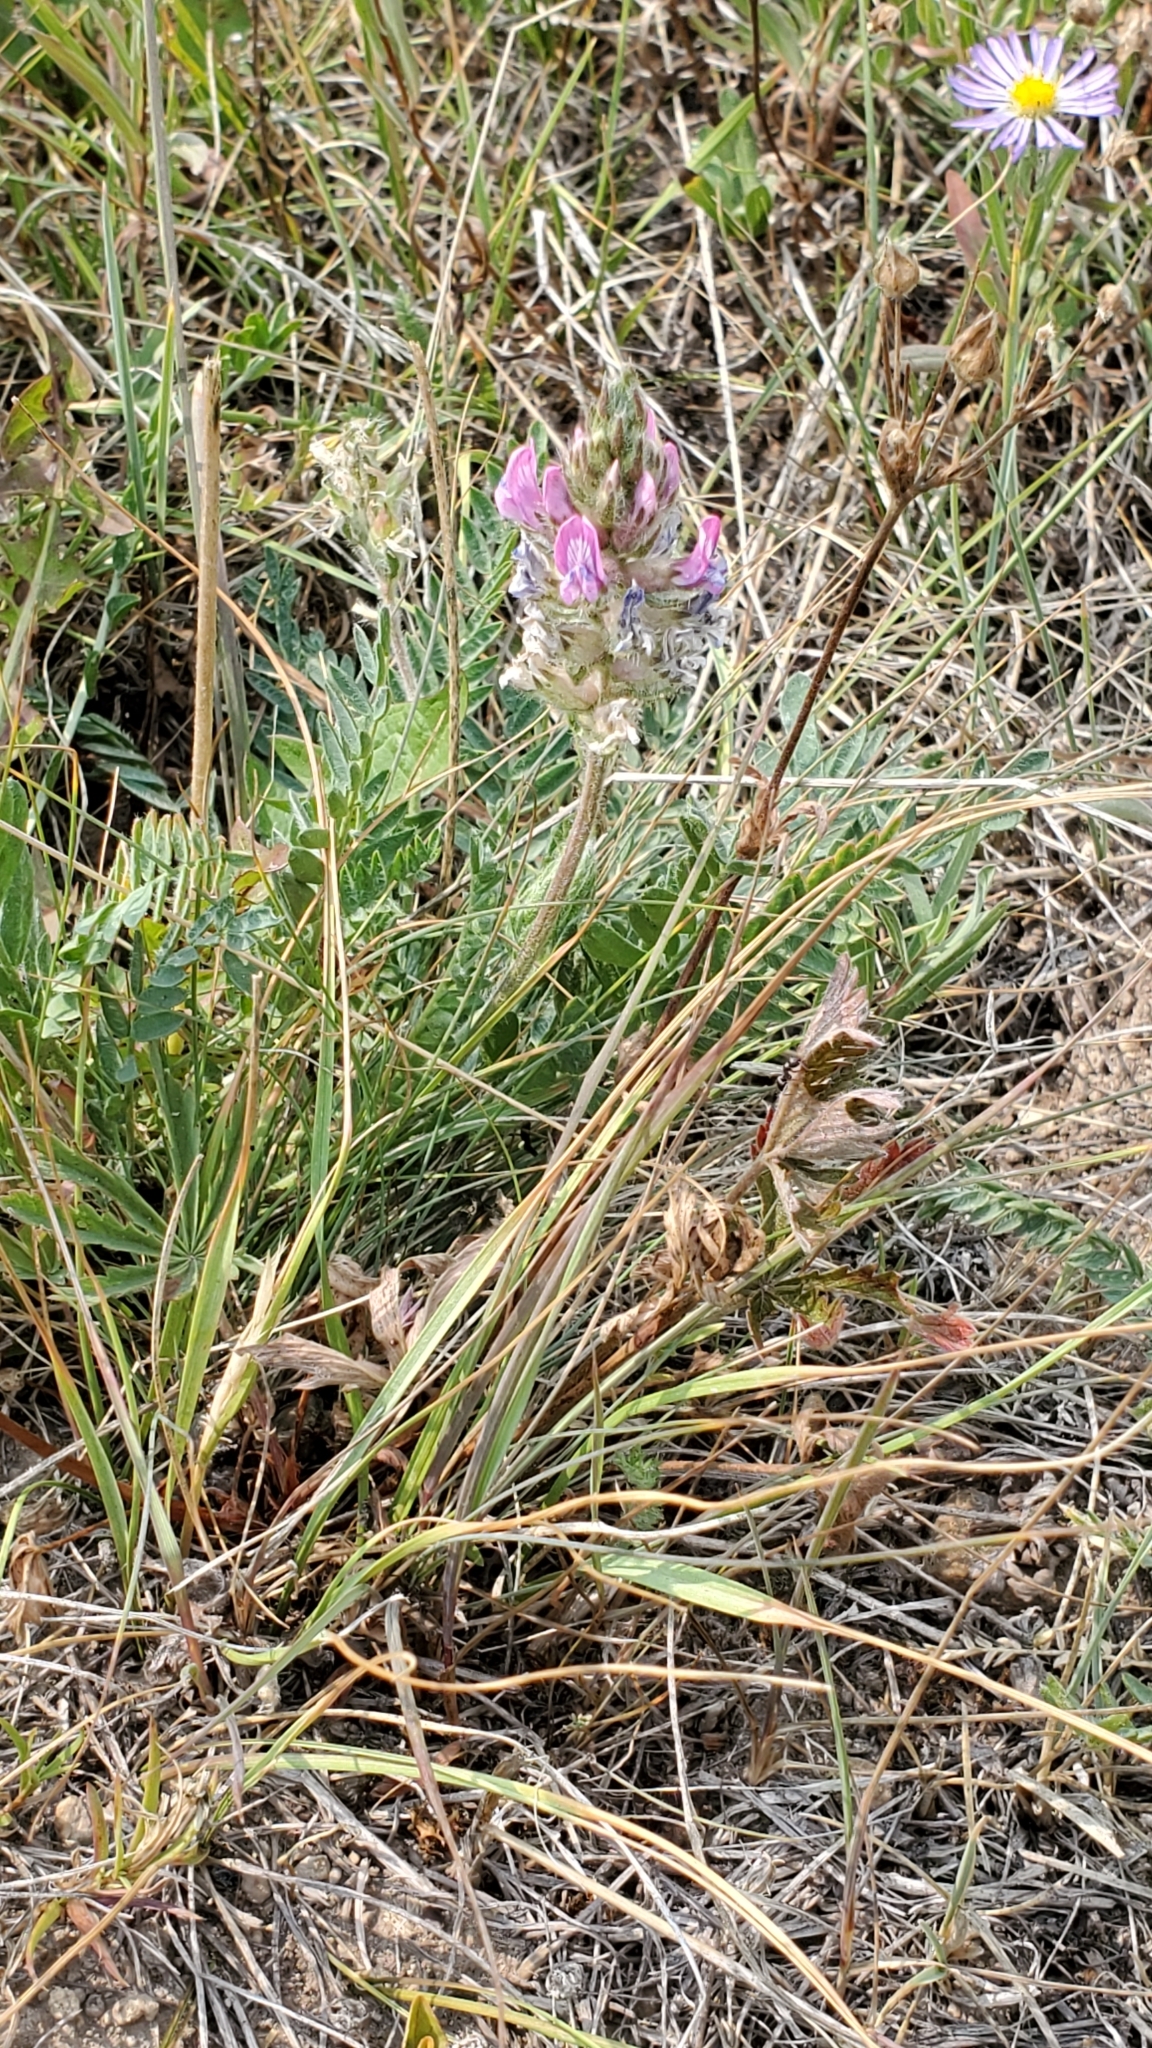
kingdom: Plantae
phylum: Tracheophyta
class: Magnoliopsida
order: Fabales
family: Fabaceae
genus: Oxytropis
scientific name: Oxytropis borealis
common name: Boreal locoweed
